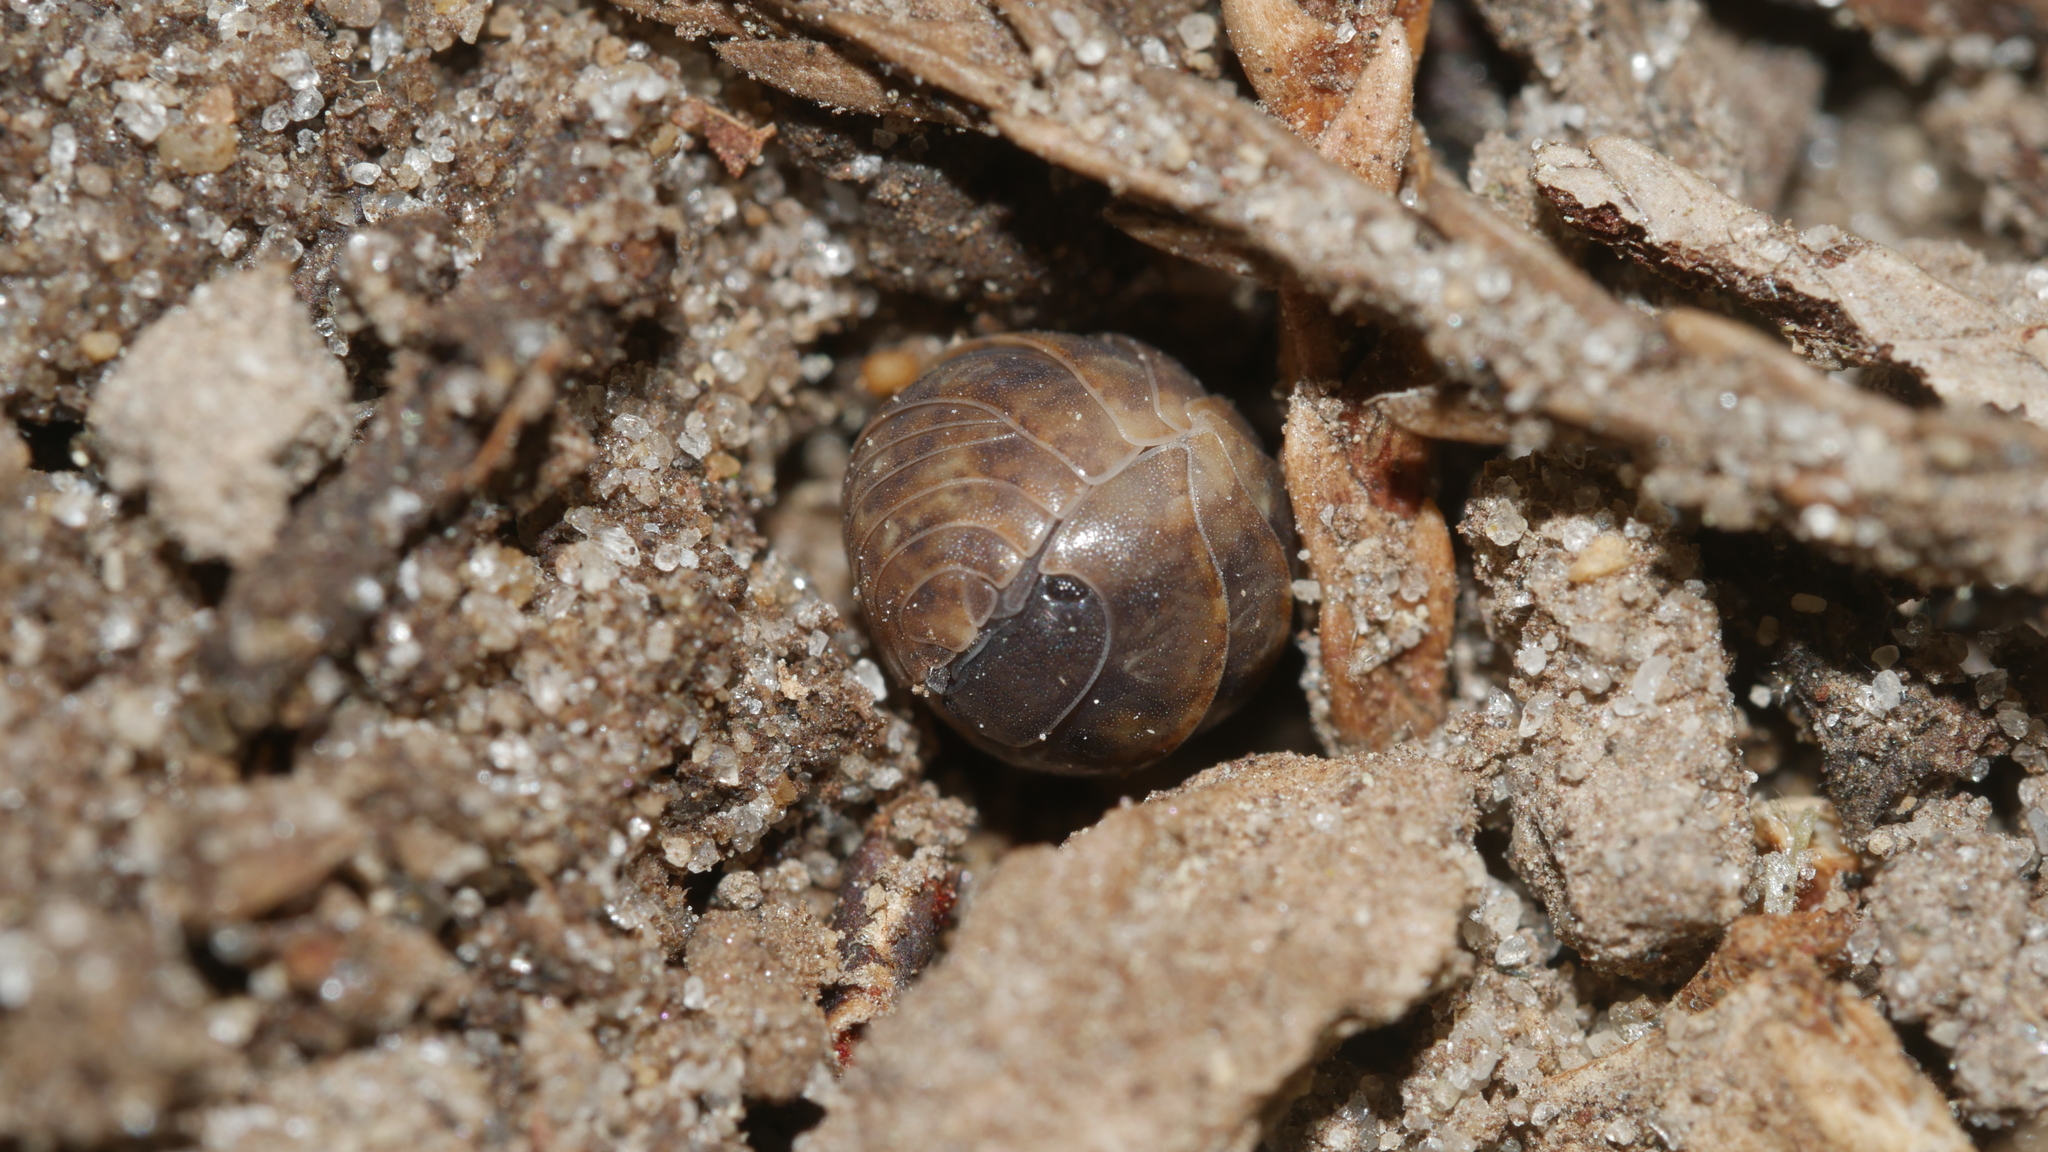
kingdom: Animalia
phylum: Arthropoda
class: Malacostraca
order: Isopoda
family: Armadillidiidae
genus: Armadillidium
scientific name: Armadillidium vulgare
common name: Common pill woodlouse
